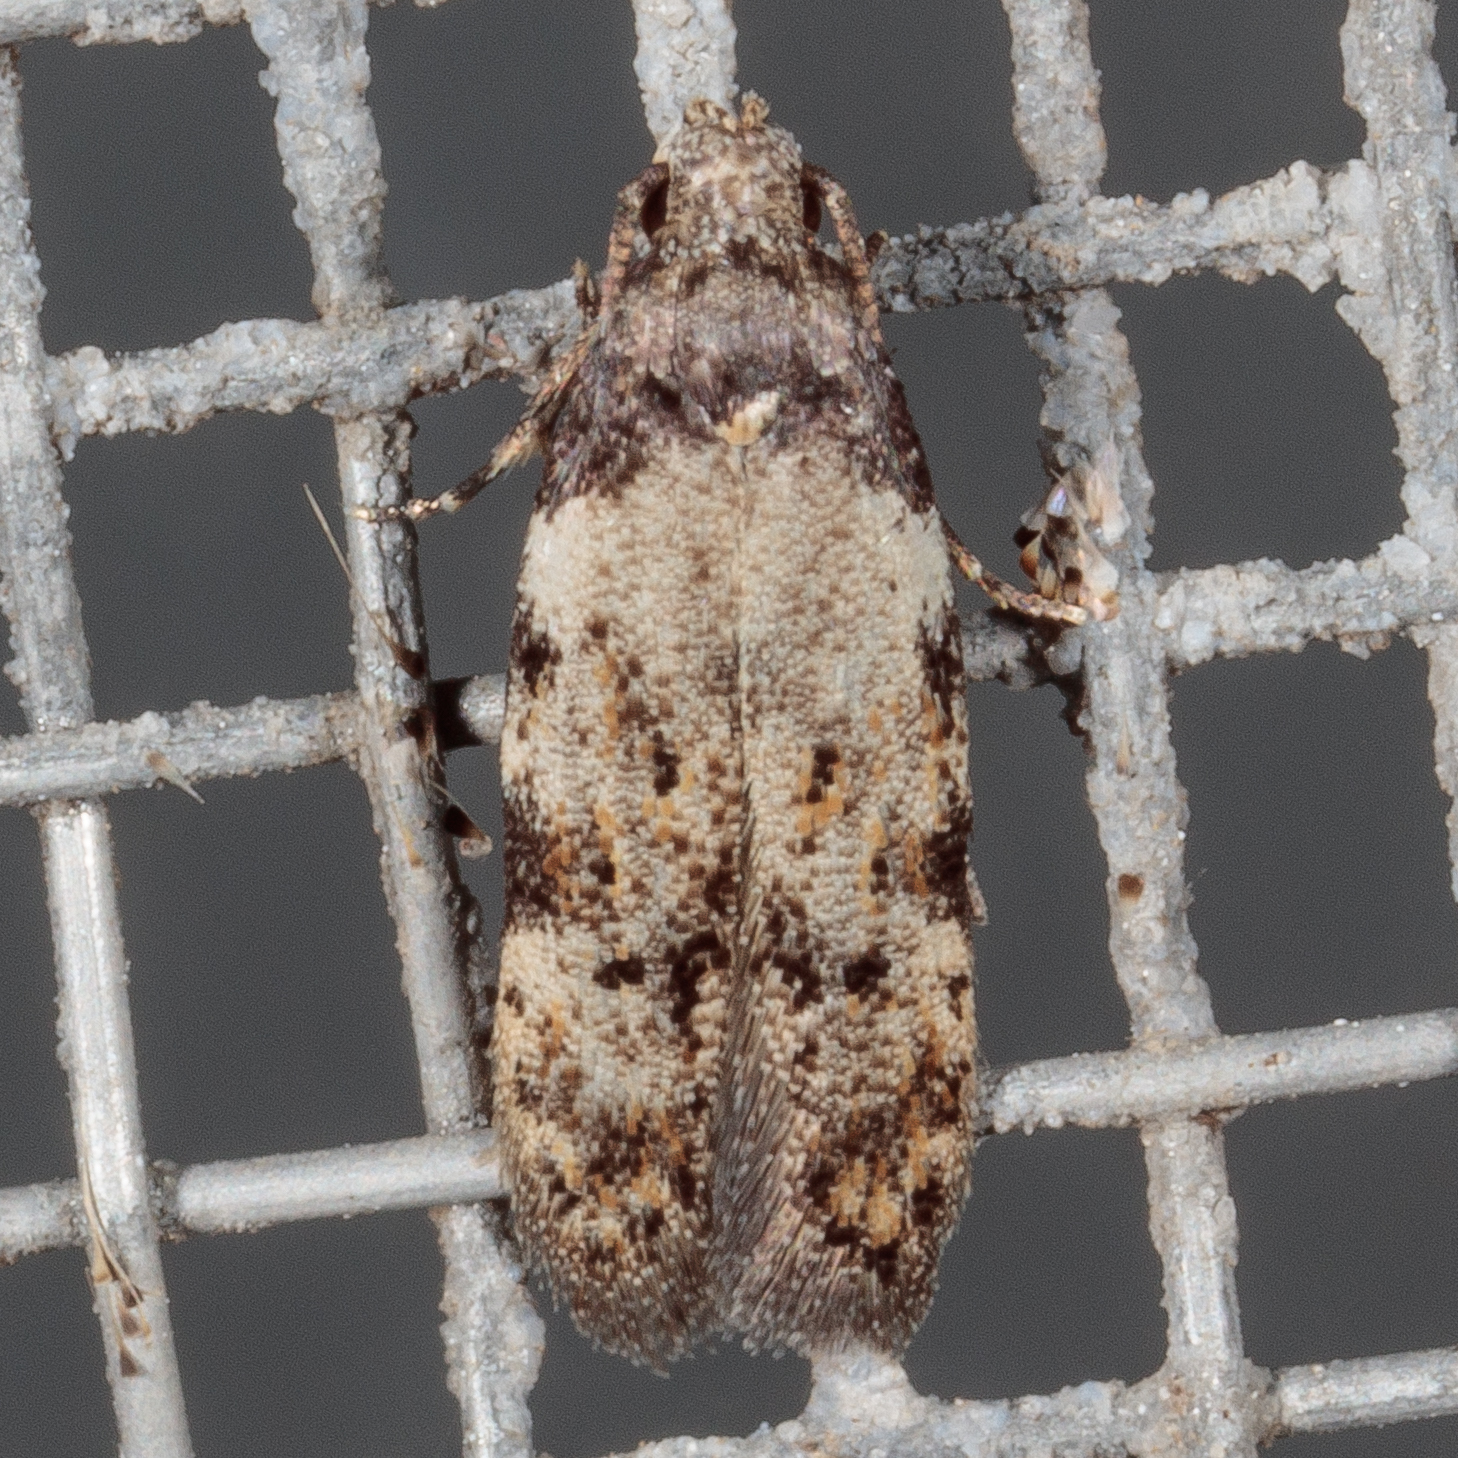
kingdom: Animalia
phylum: Arthropoda
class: Insecta
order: Lepidoptera
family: Autostichidae
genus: Taygete
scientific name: Taygete attributella
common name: Triangle-marked twirler moth
